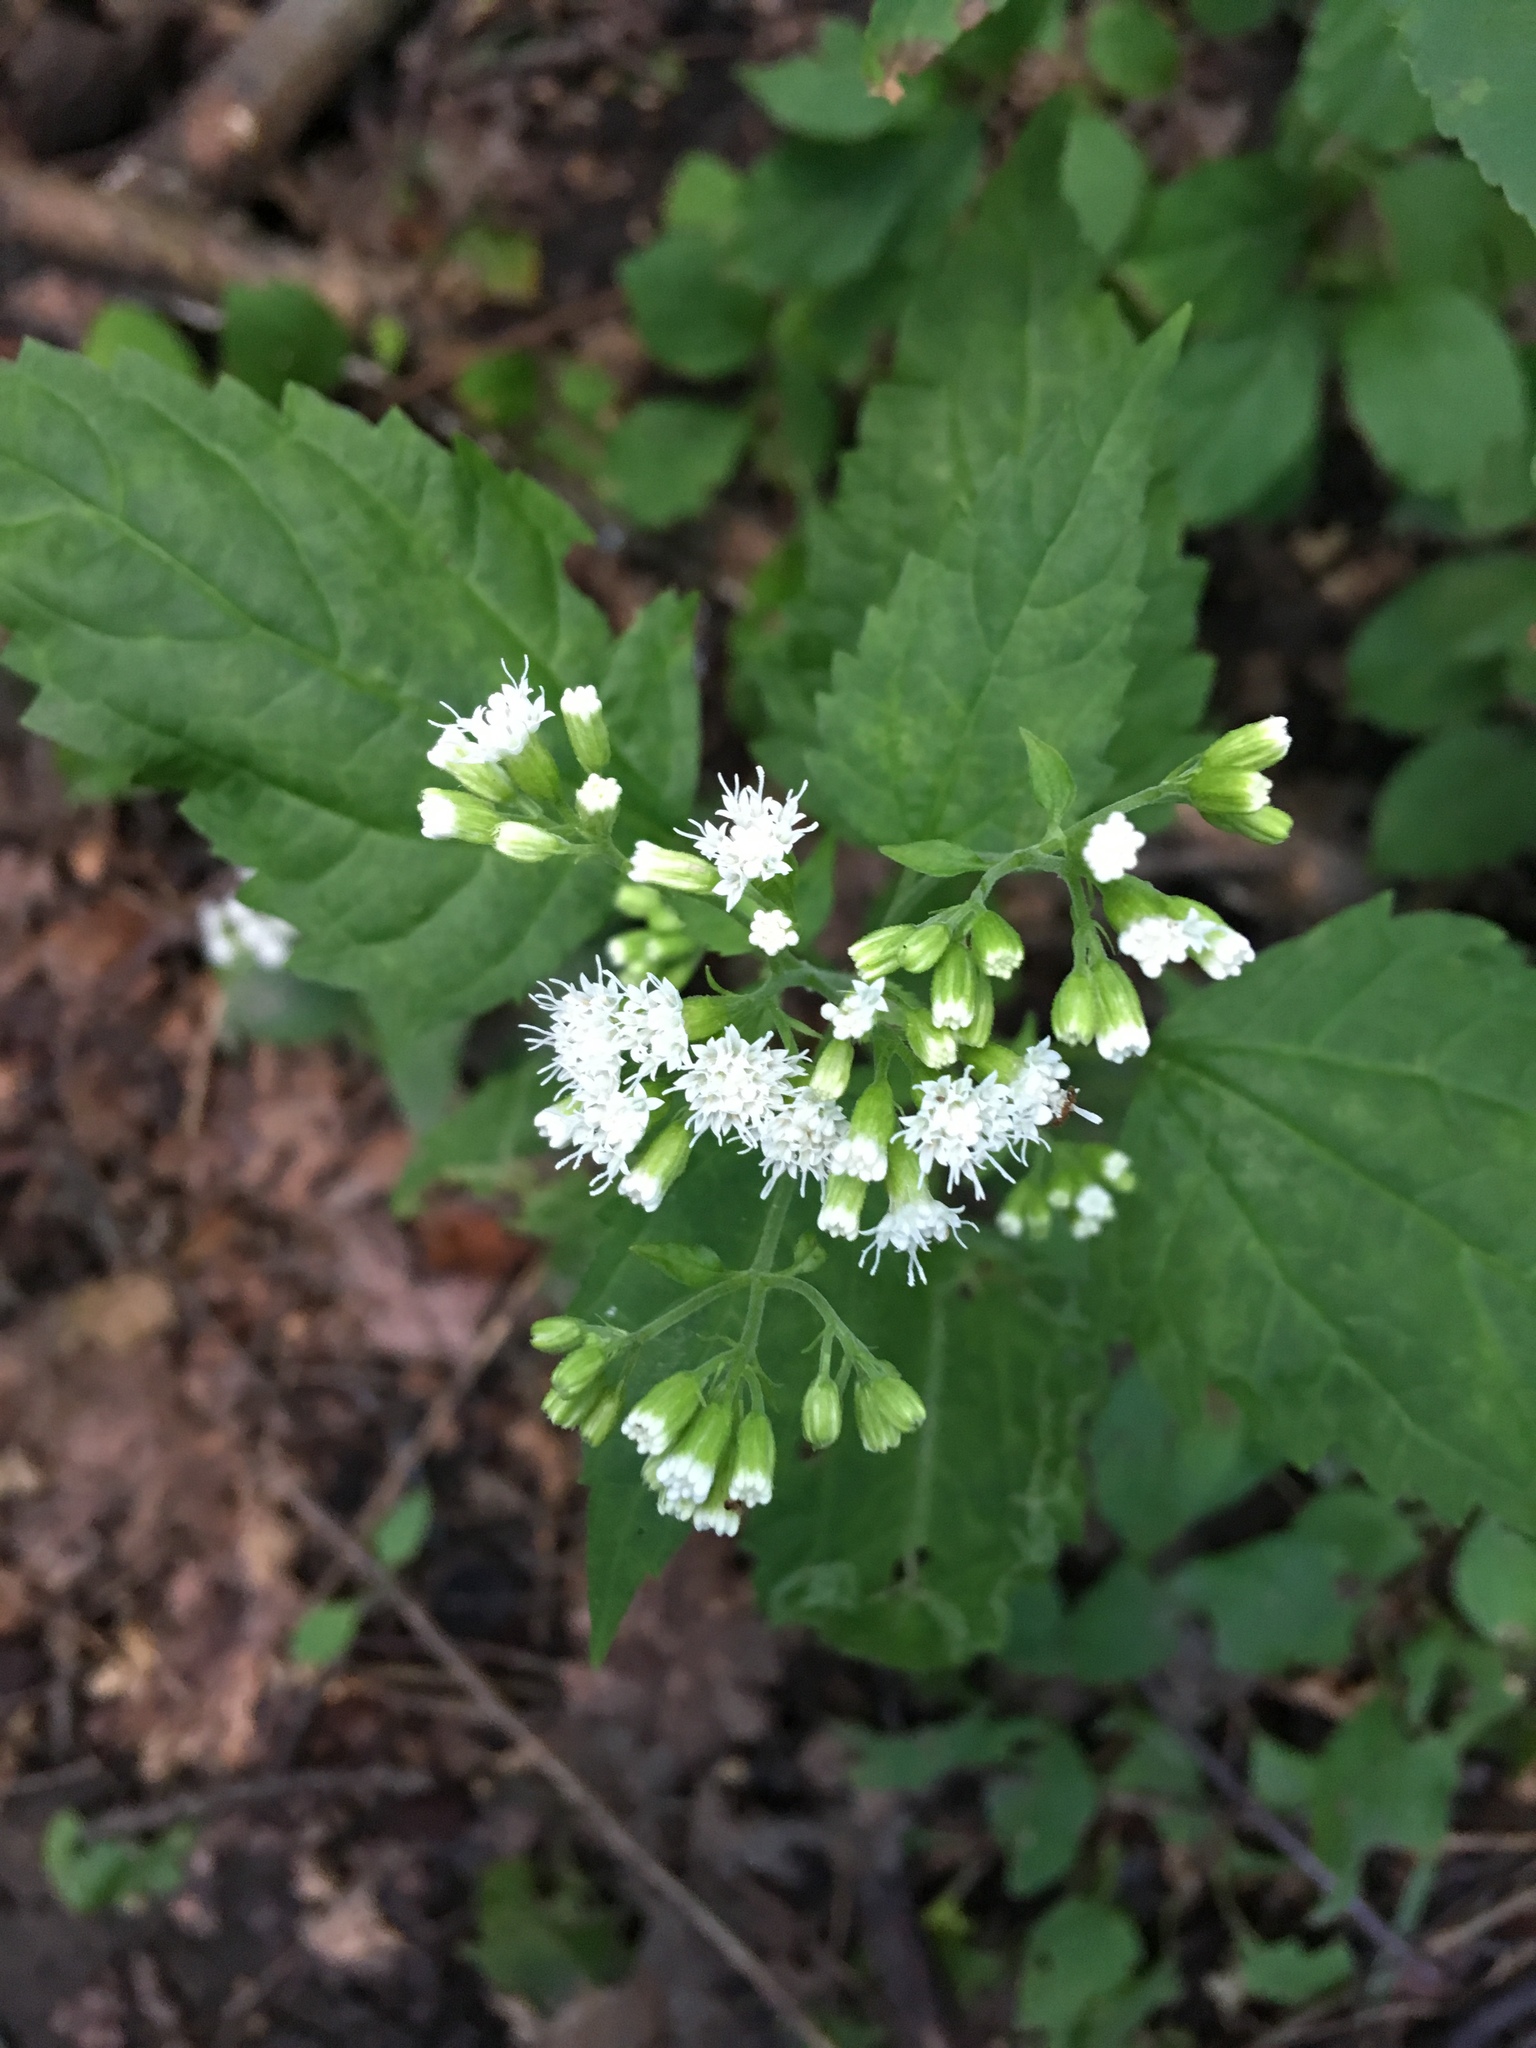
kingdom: Plantae
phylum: Tracheophyta
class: Magnoliopsida
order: Asterales
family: Asteraceae
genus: Ageratina
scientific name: Ageratina altissima
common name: White snakeroot
